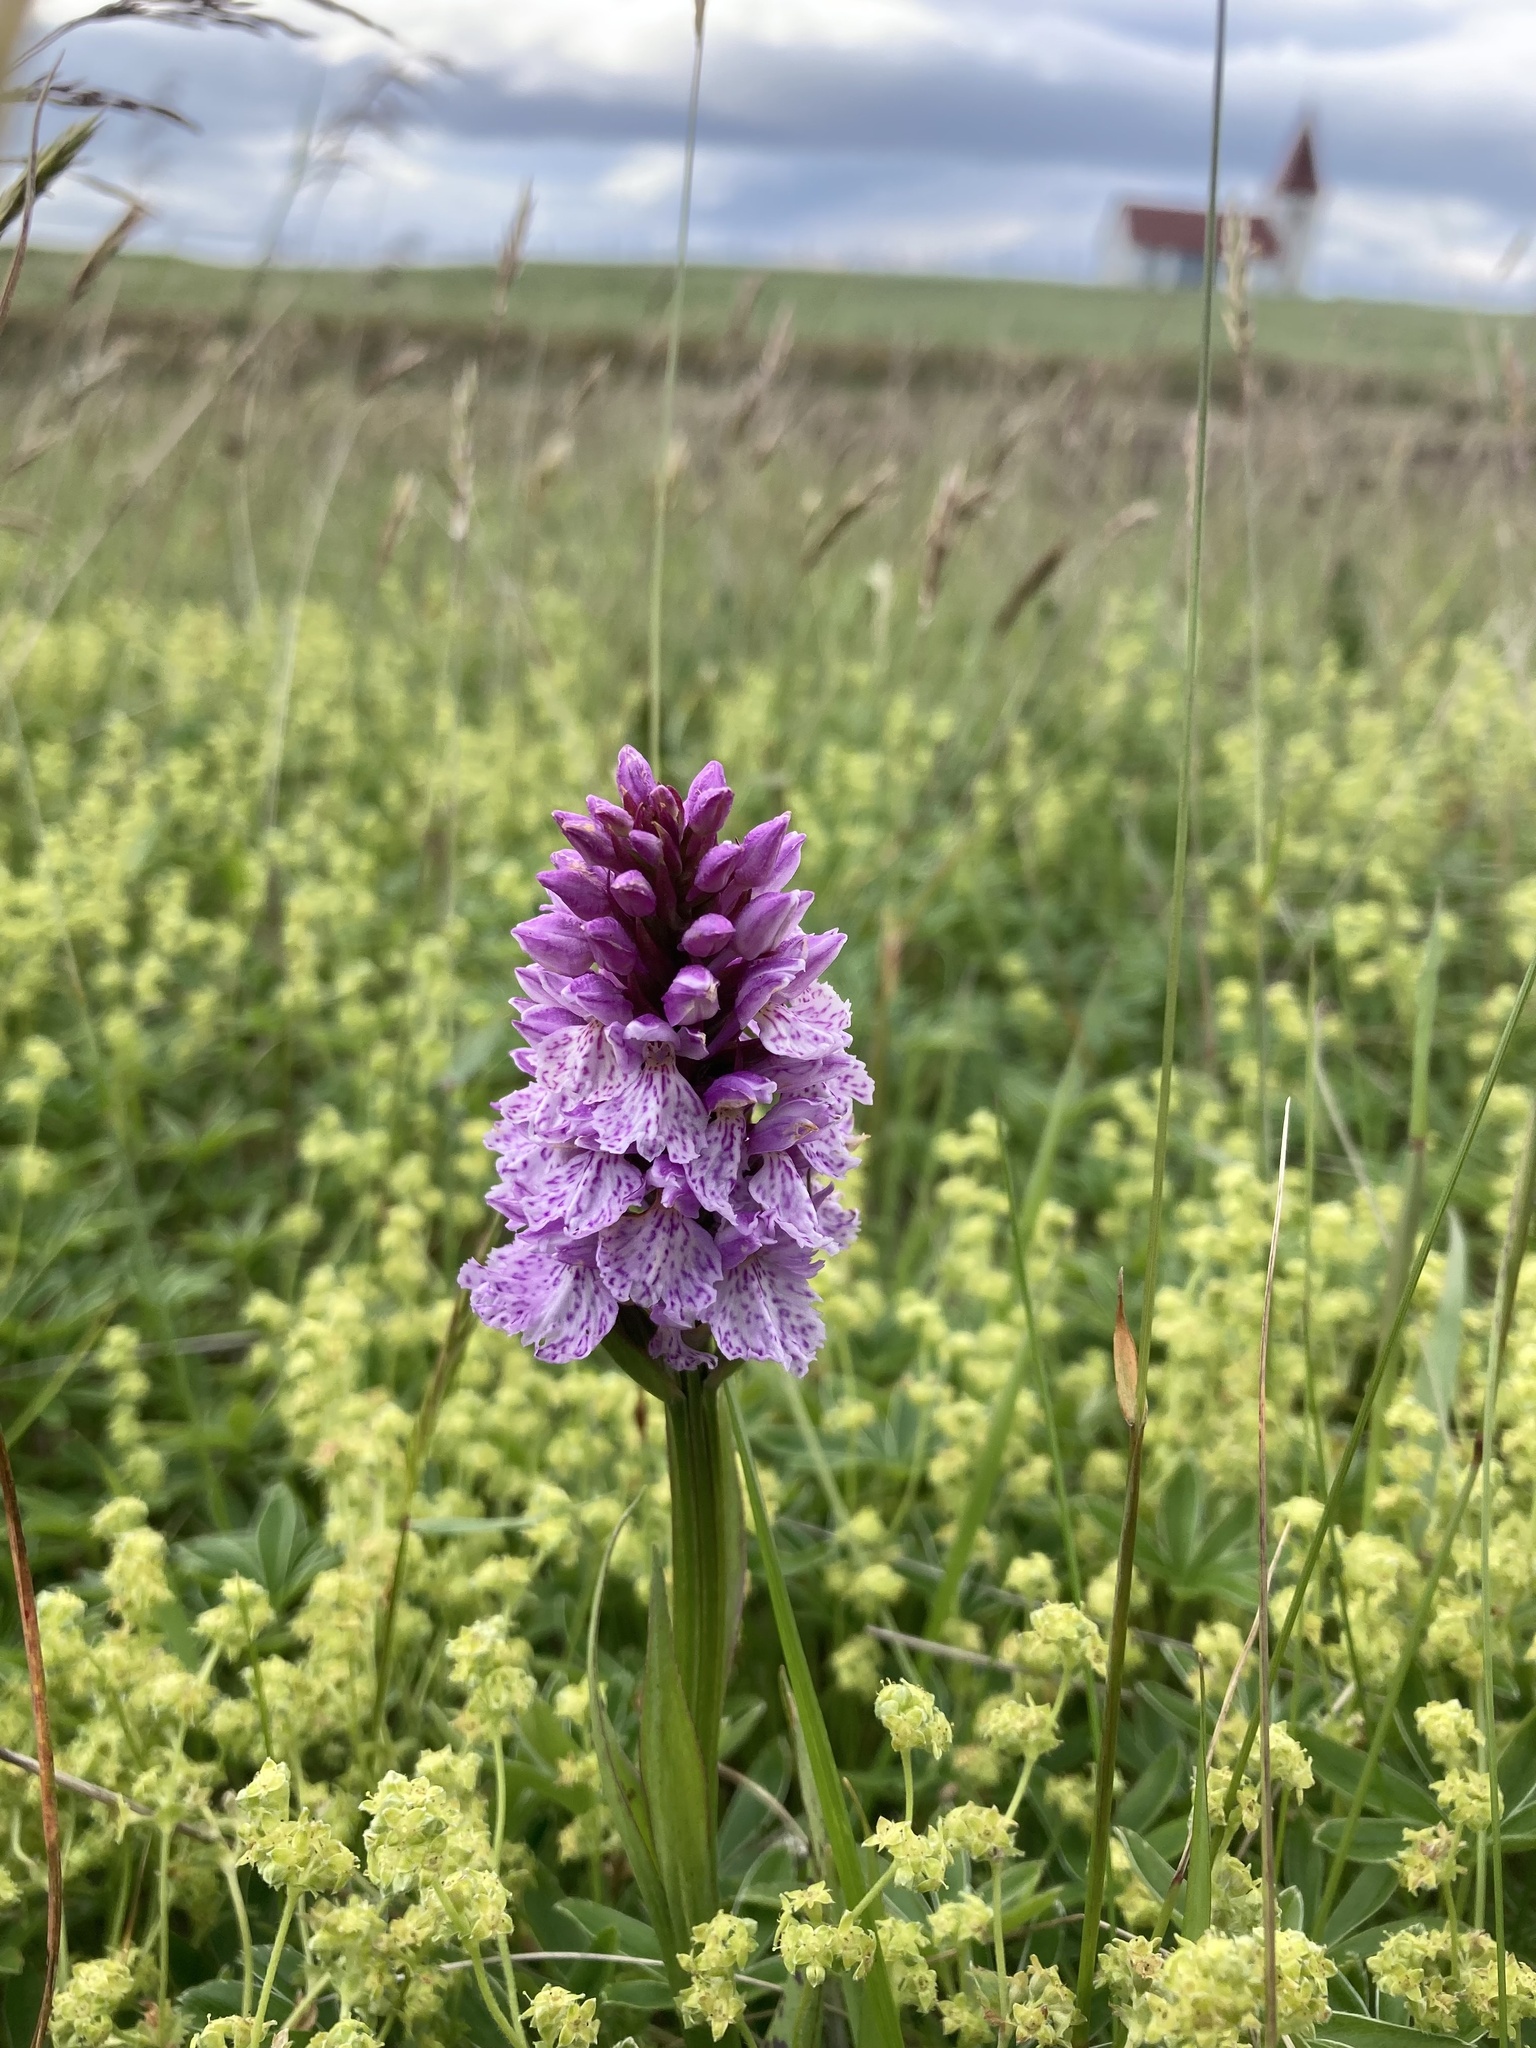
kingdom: Plantae
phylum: Tracheophyta
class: Liliopsida
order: Asparagales
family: Orchidaceae
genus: Dactylorhiza
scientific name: Dactylorhiza maculata
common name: Heath spotted-orchid
